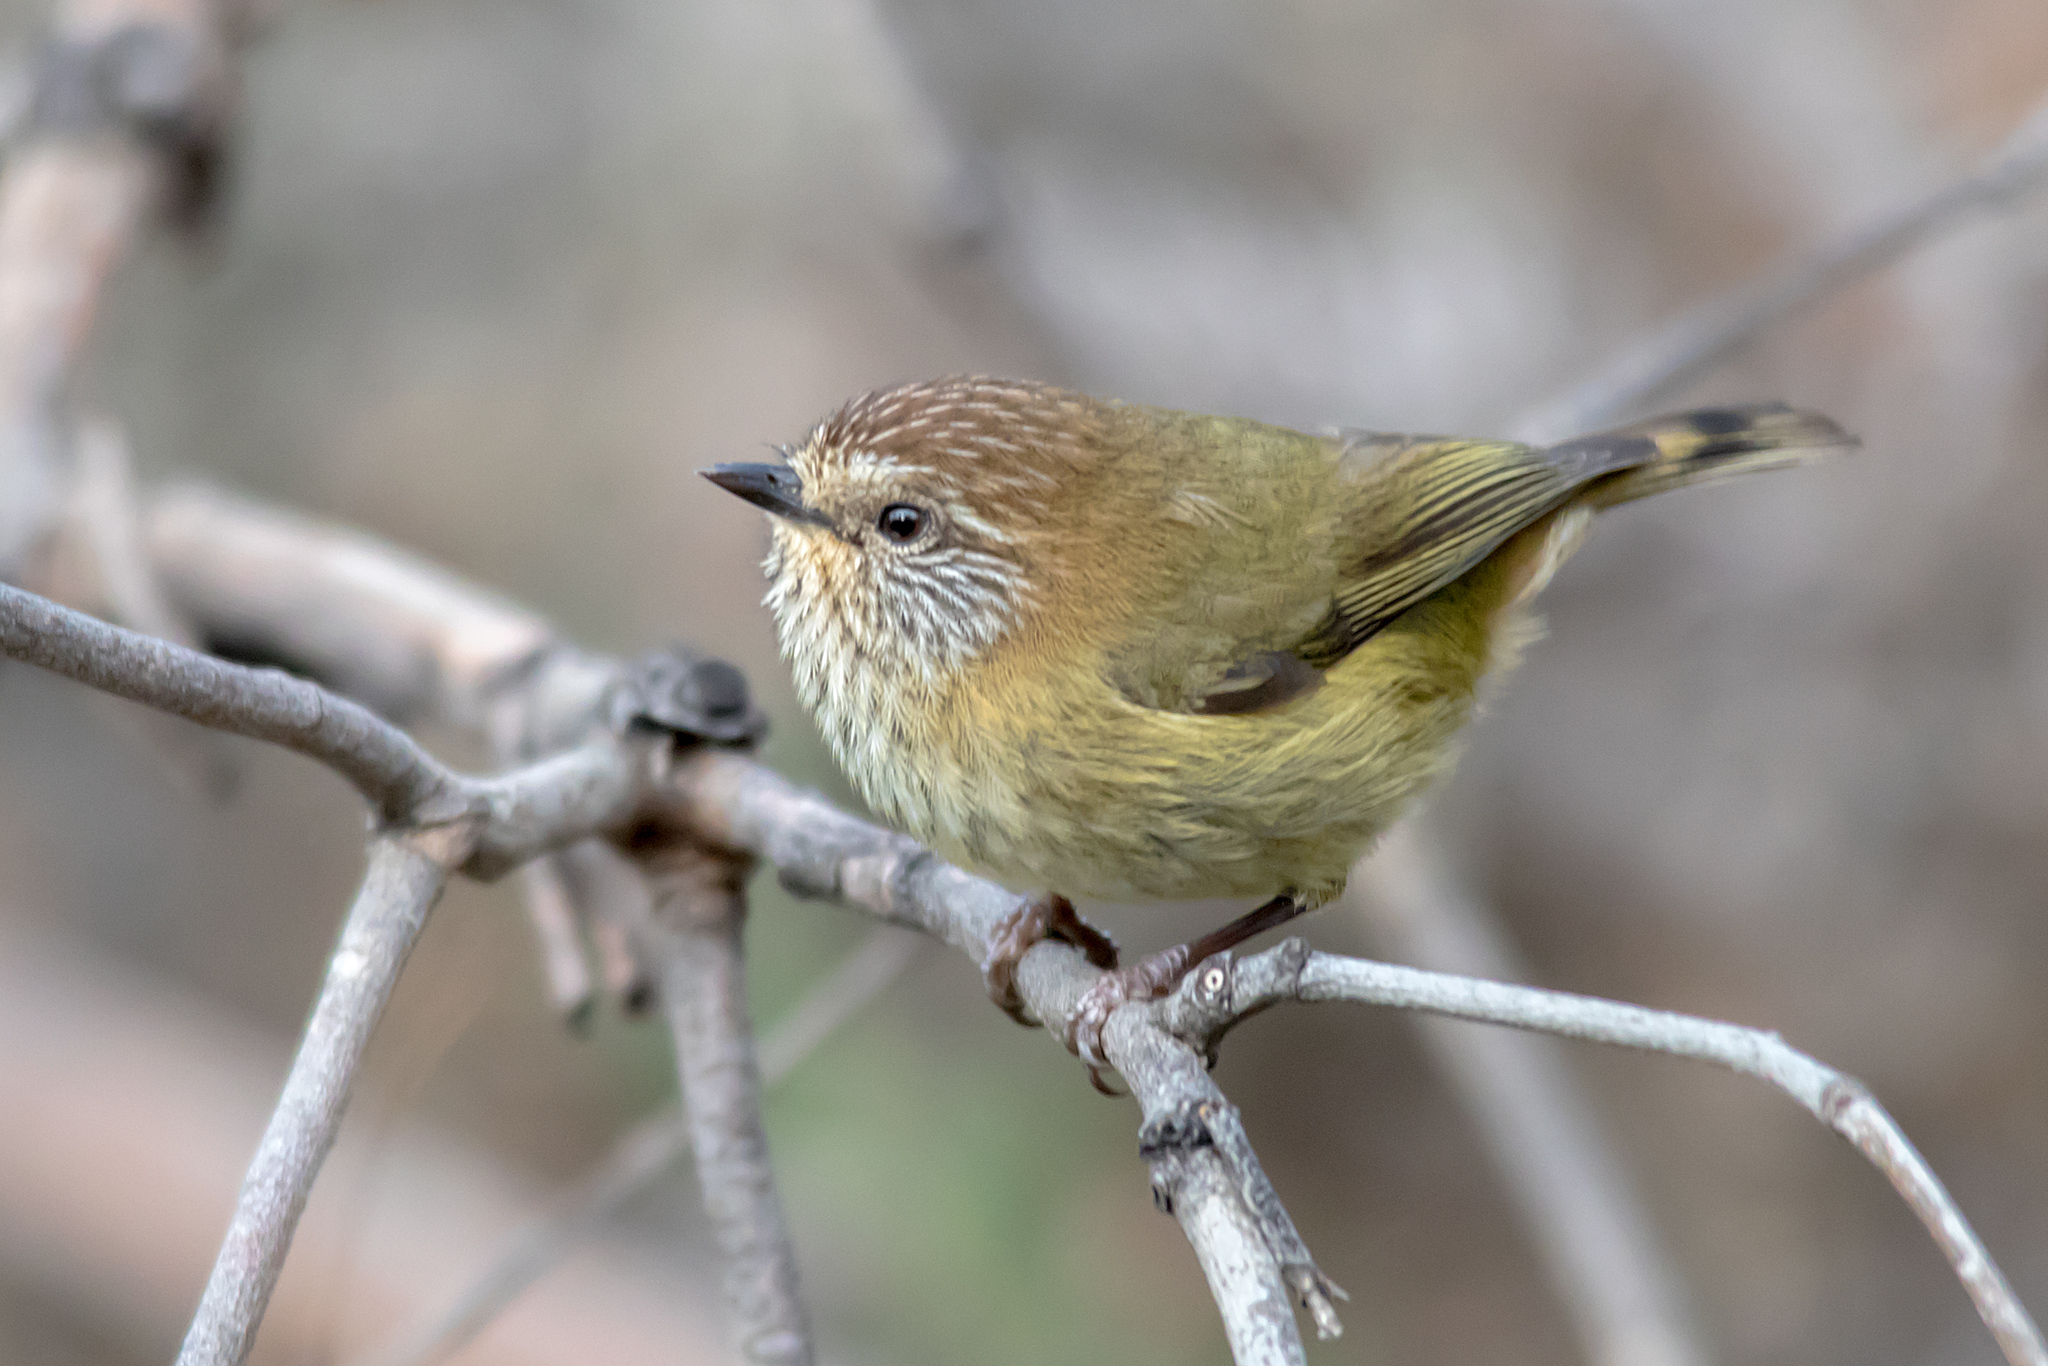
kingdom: Animalia
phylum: Chordata
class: Aves
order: Passeriformes
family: Acanthizidae
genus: Acanthiza
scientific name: Acanthiza lineata
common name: Striated thornbill
